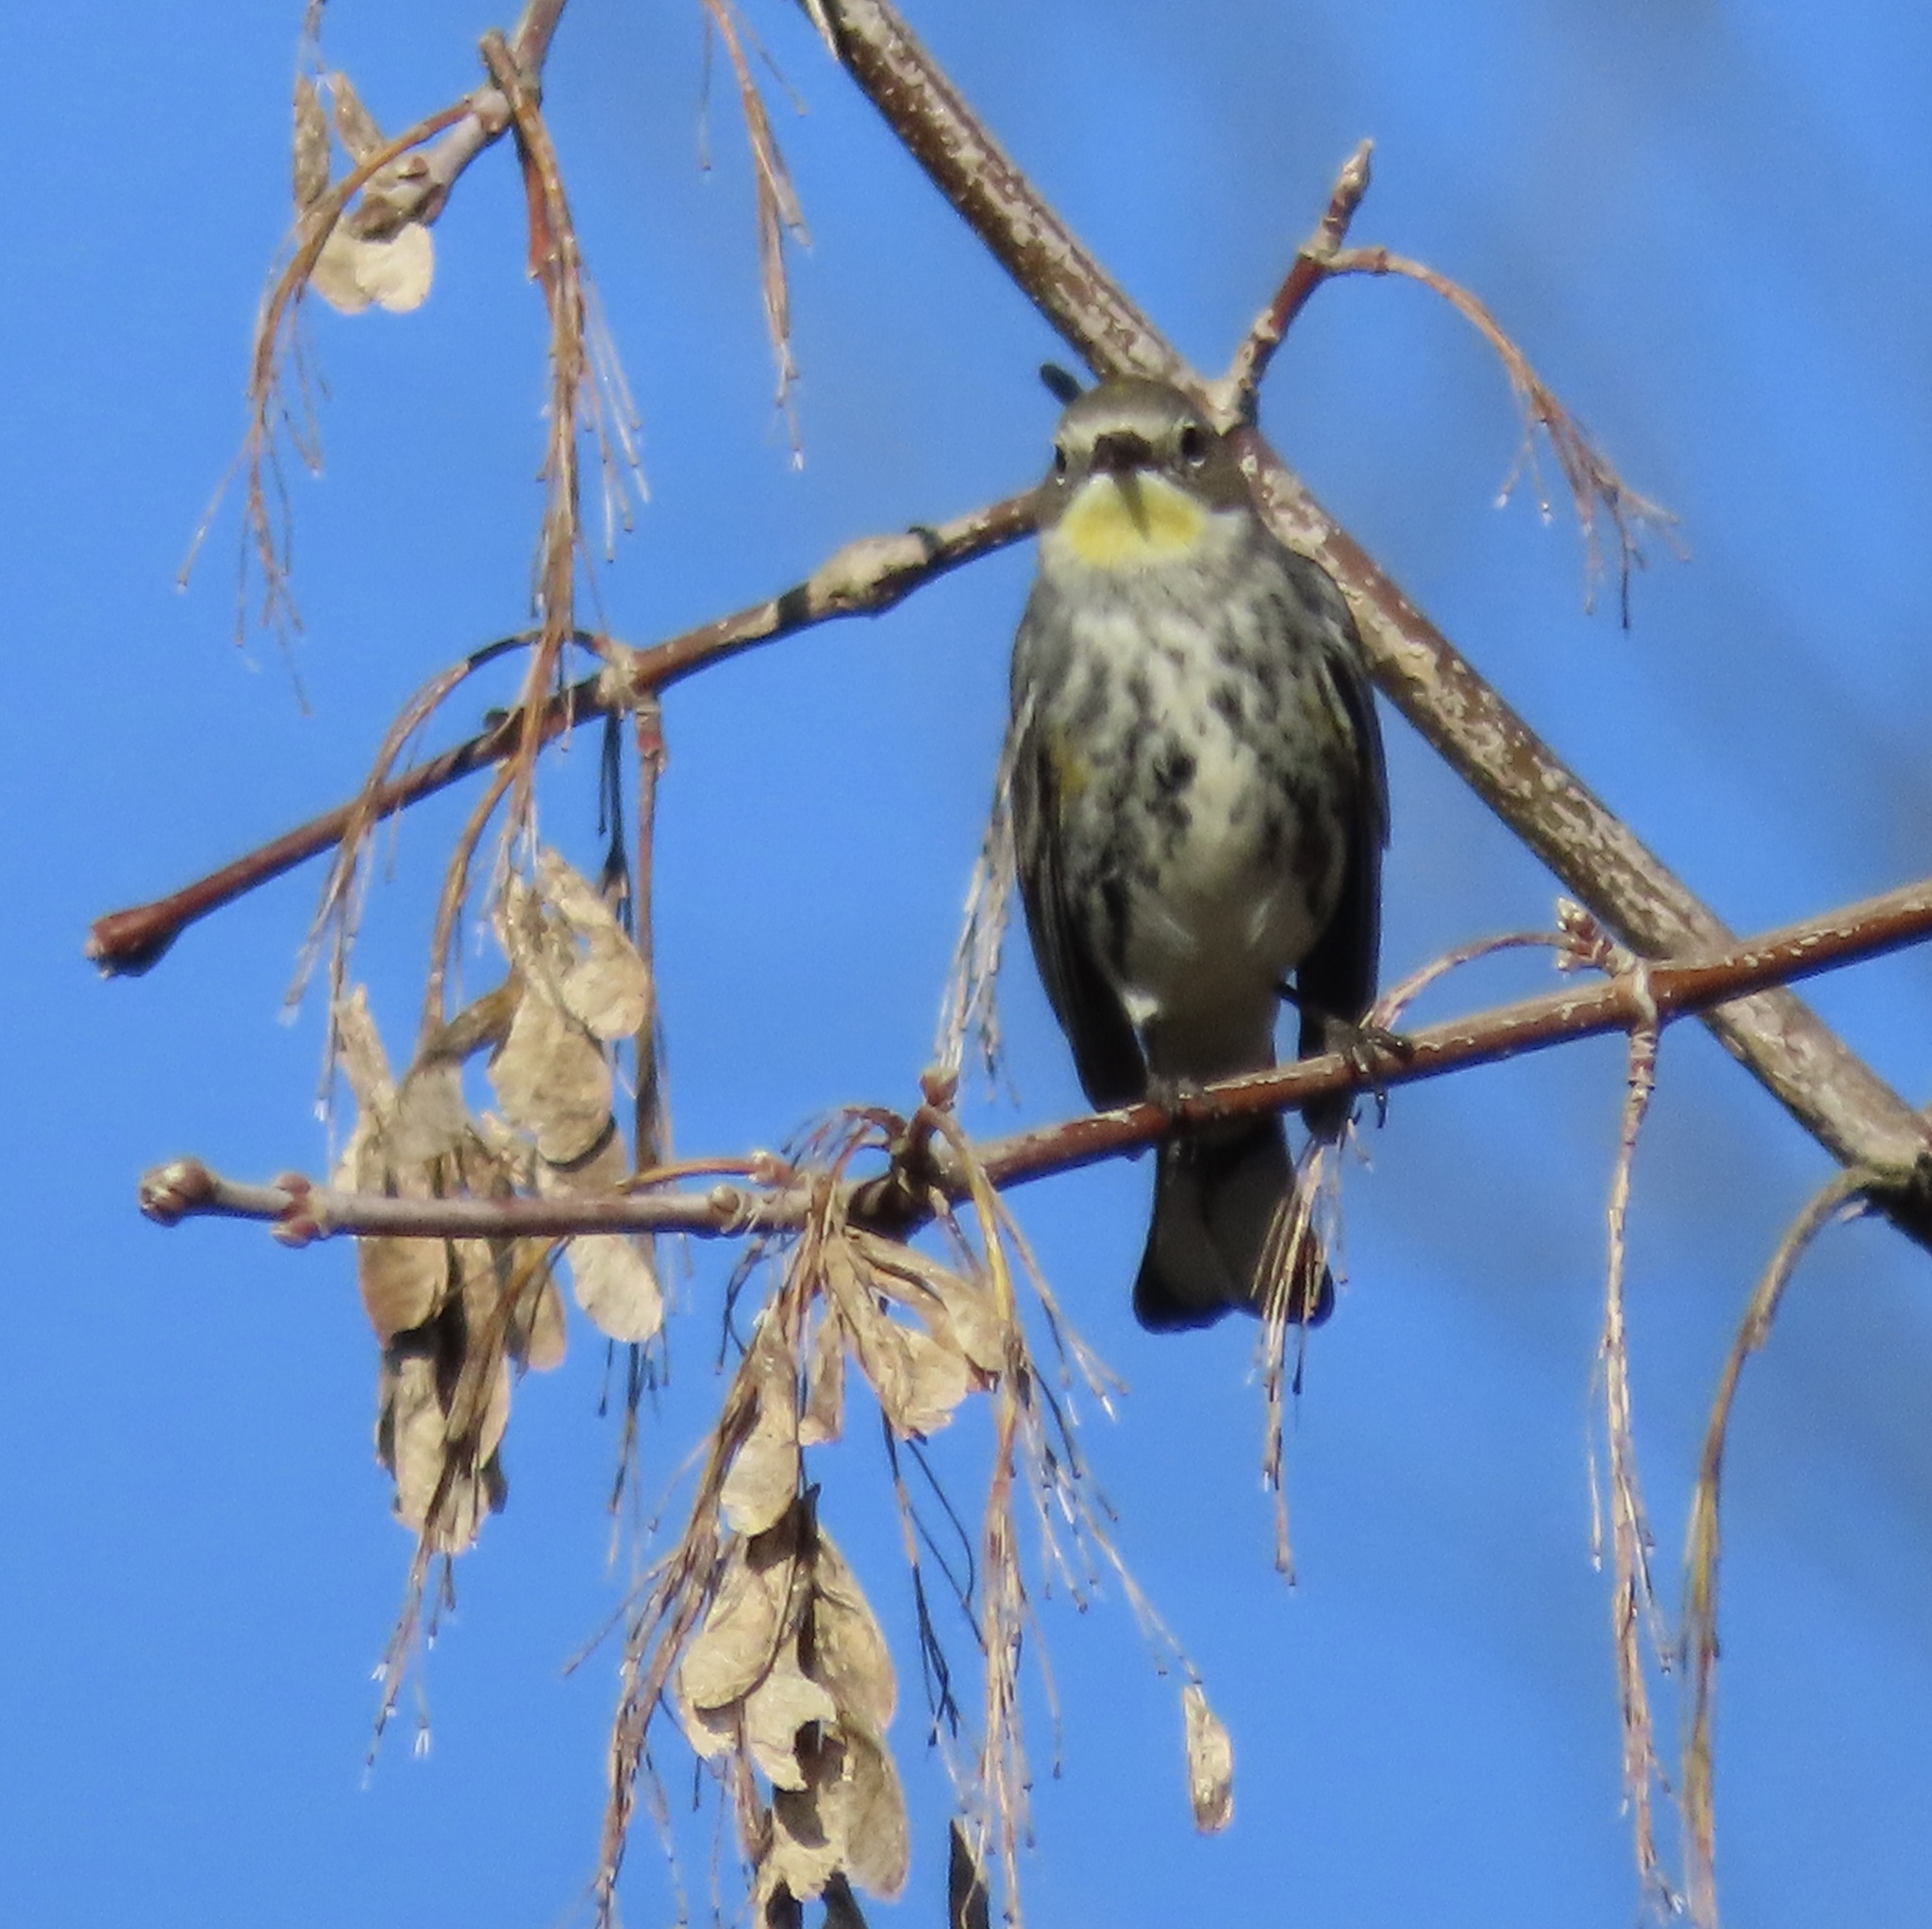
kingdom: Animalia
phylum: Chordata
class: Aves
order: Passeriformes
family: Parulidae
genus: Setophaga
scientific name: Setophaga coronata
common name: Myrtle warbler
